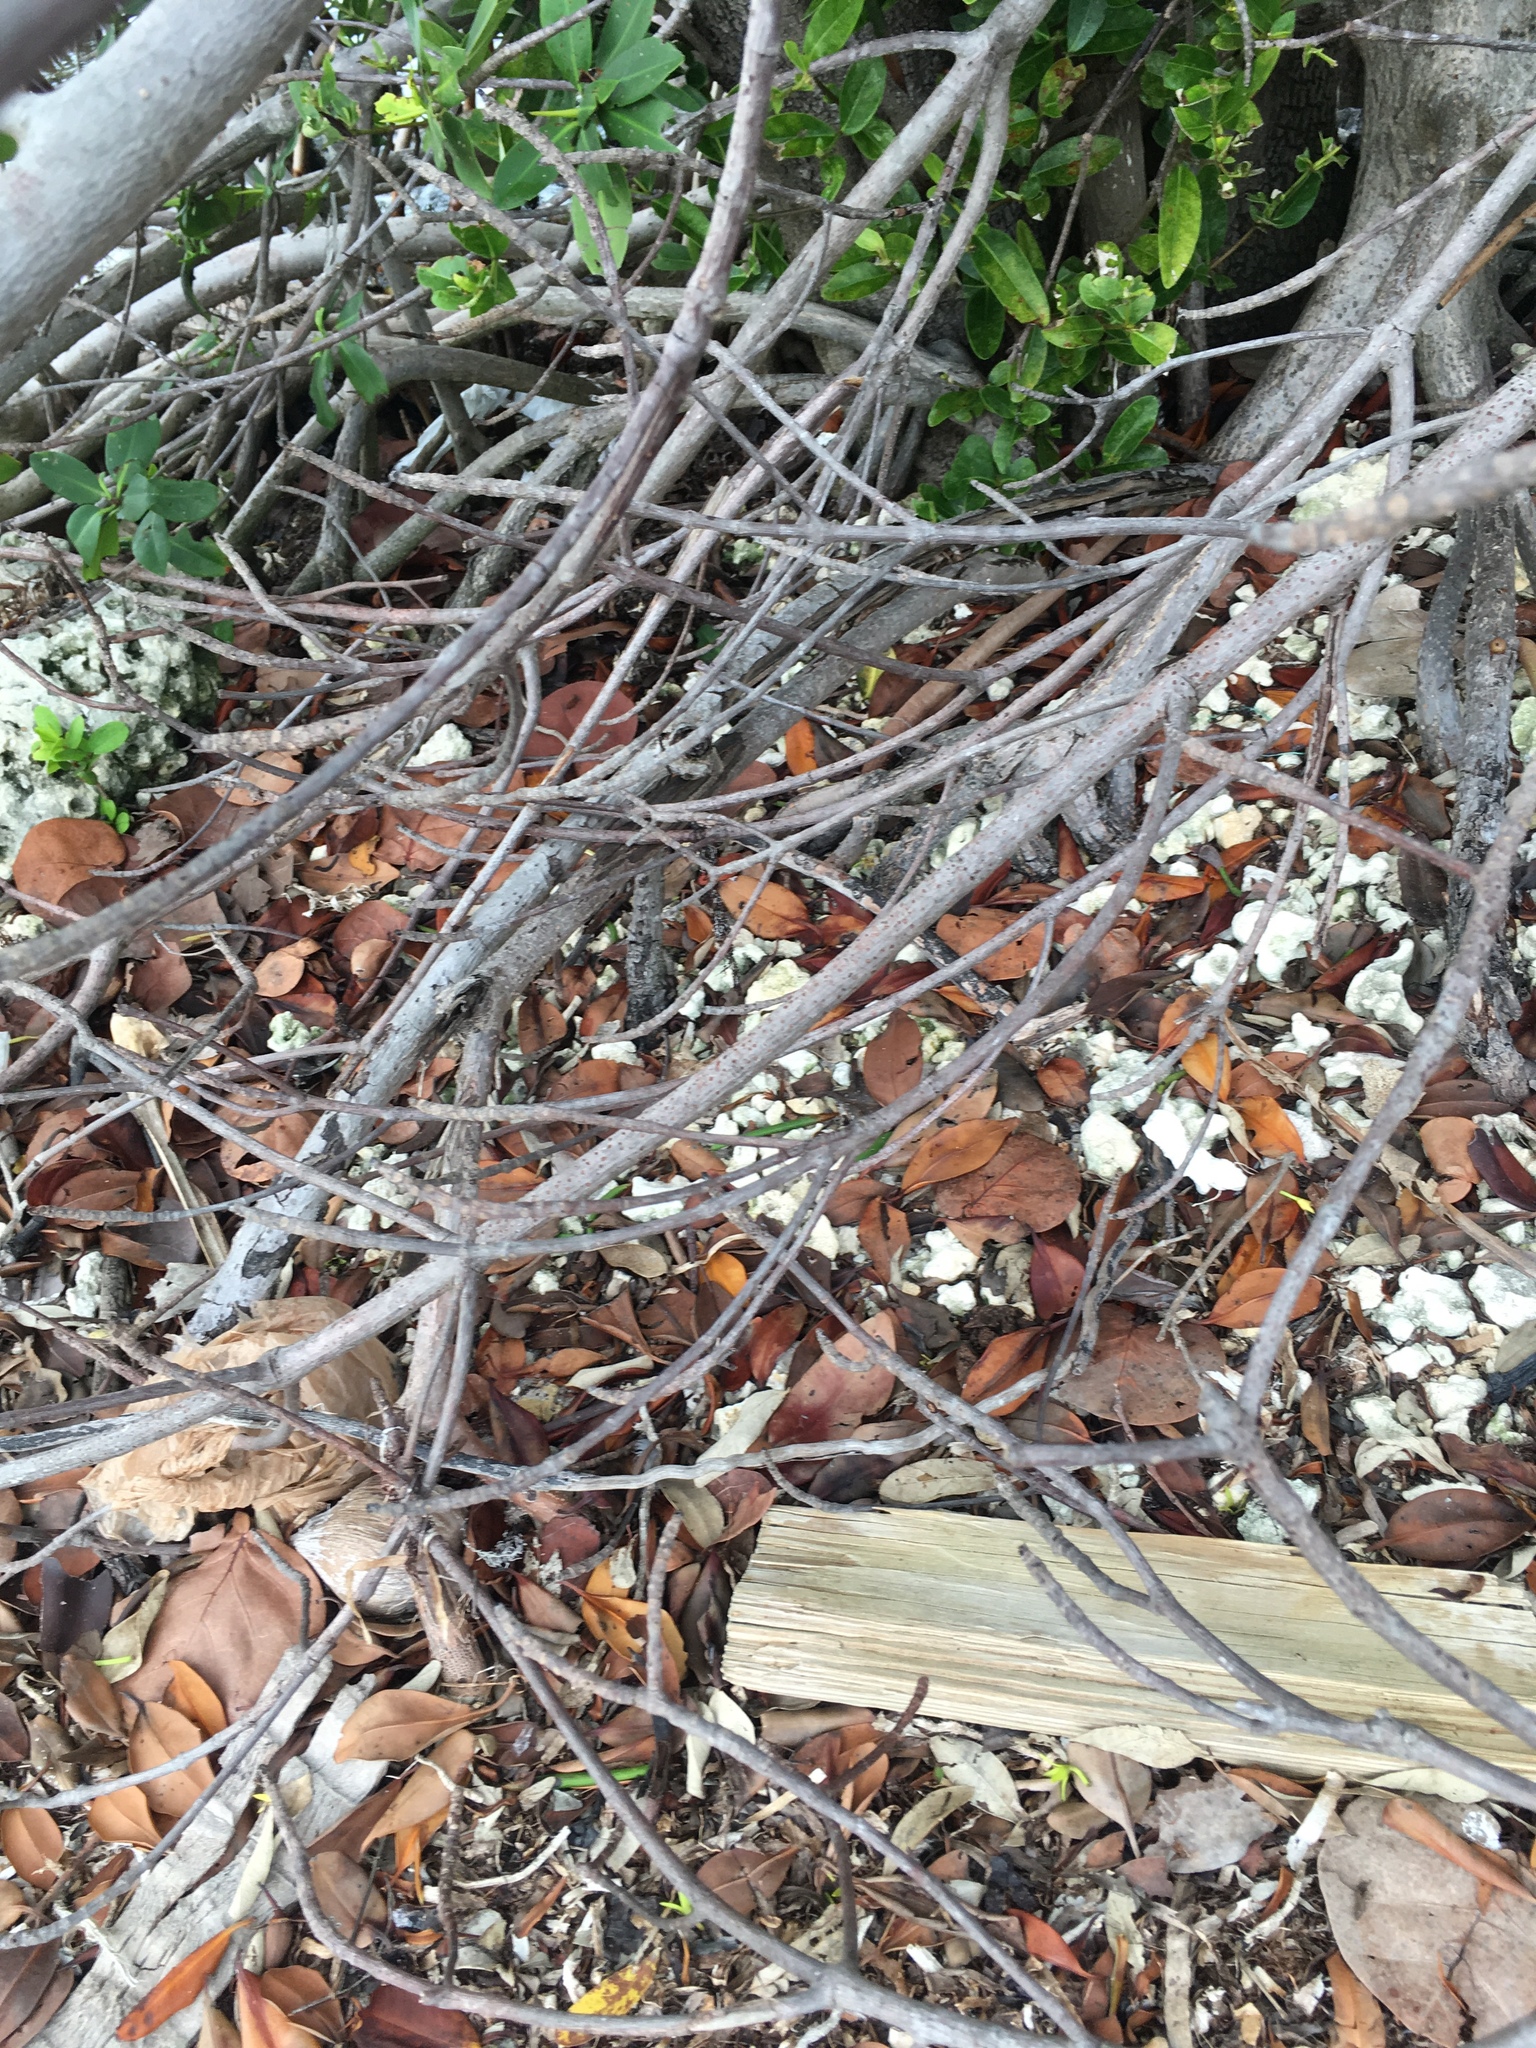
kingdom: Plantae
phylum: Tracheophyta
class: Magnoliopsida
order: Malpighiales
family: Rhizophoraceae
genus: Rhizophora
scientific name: Rhizophora mangle
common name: Red mangrove
